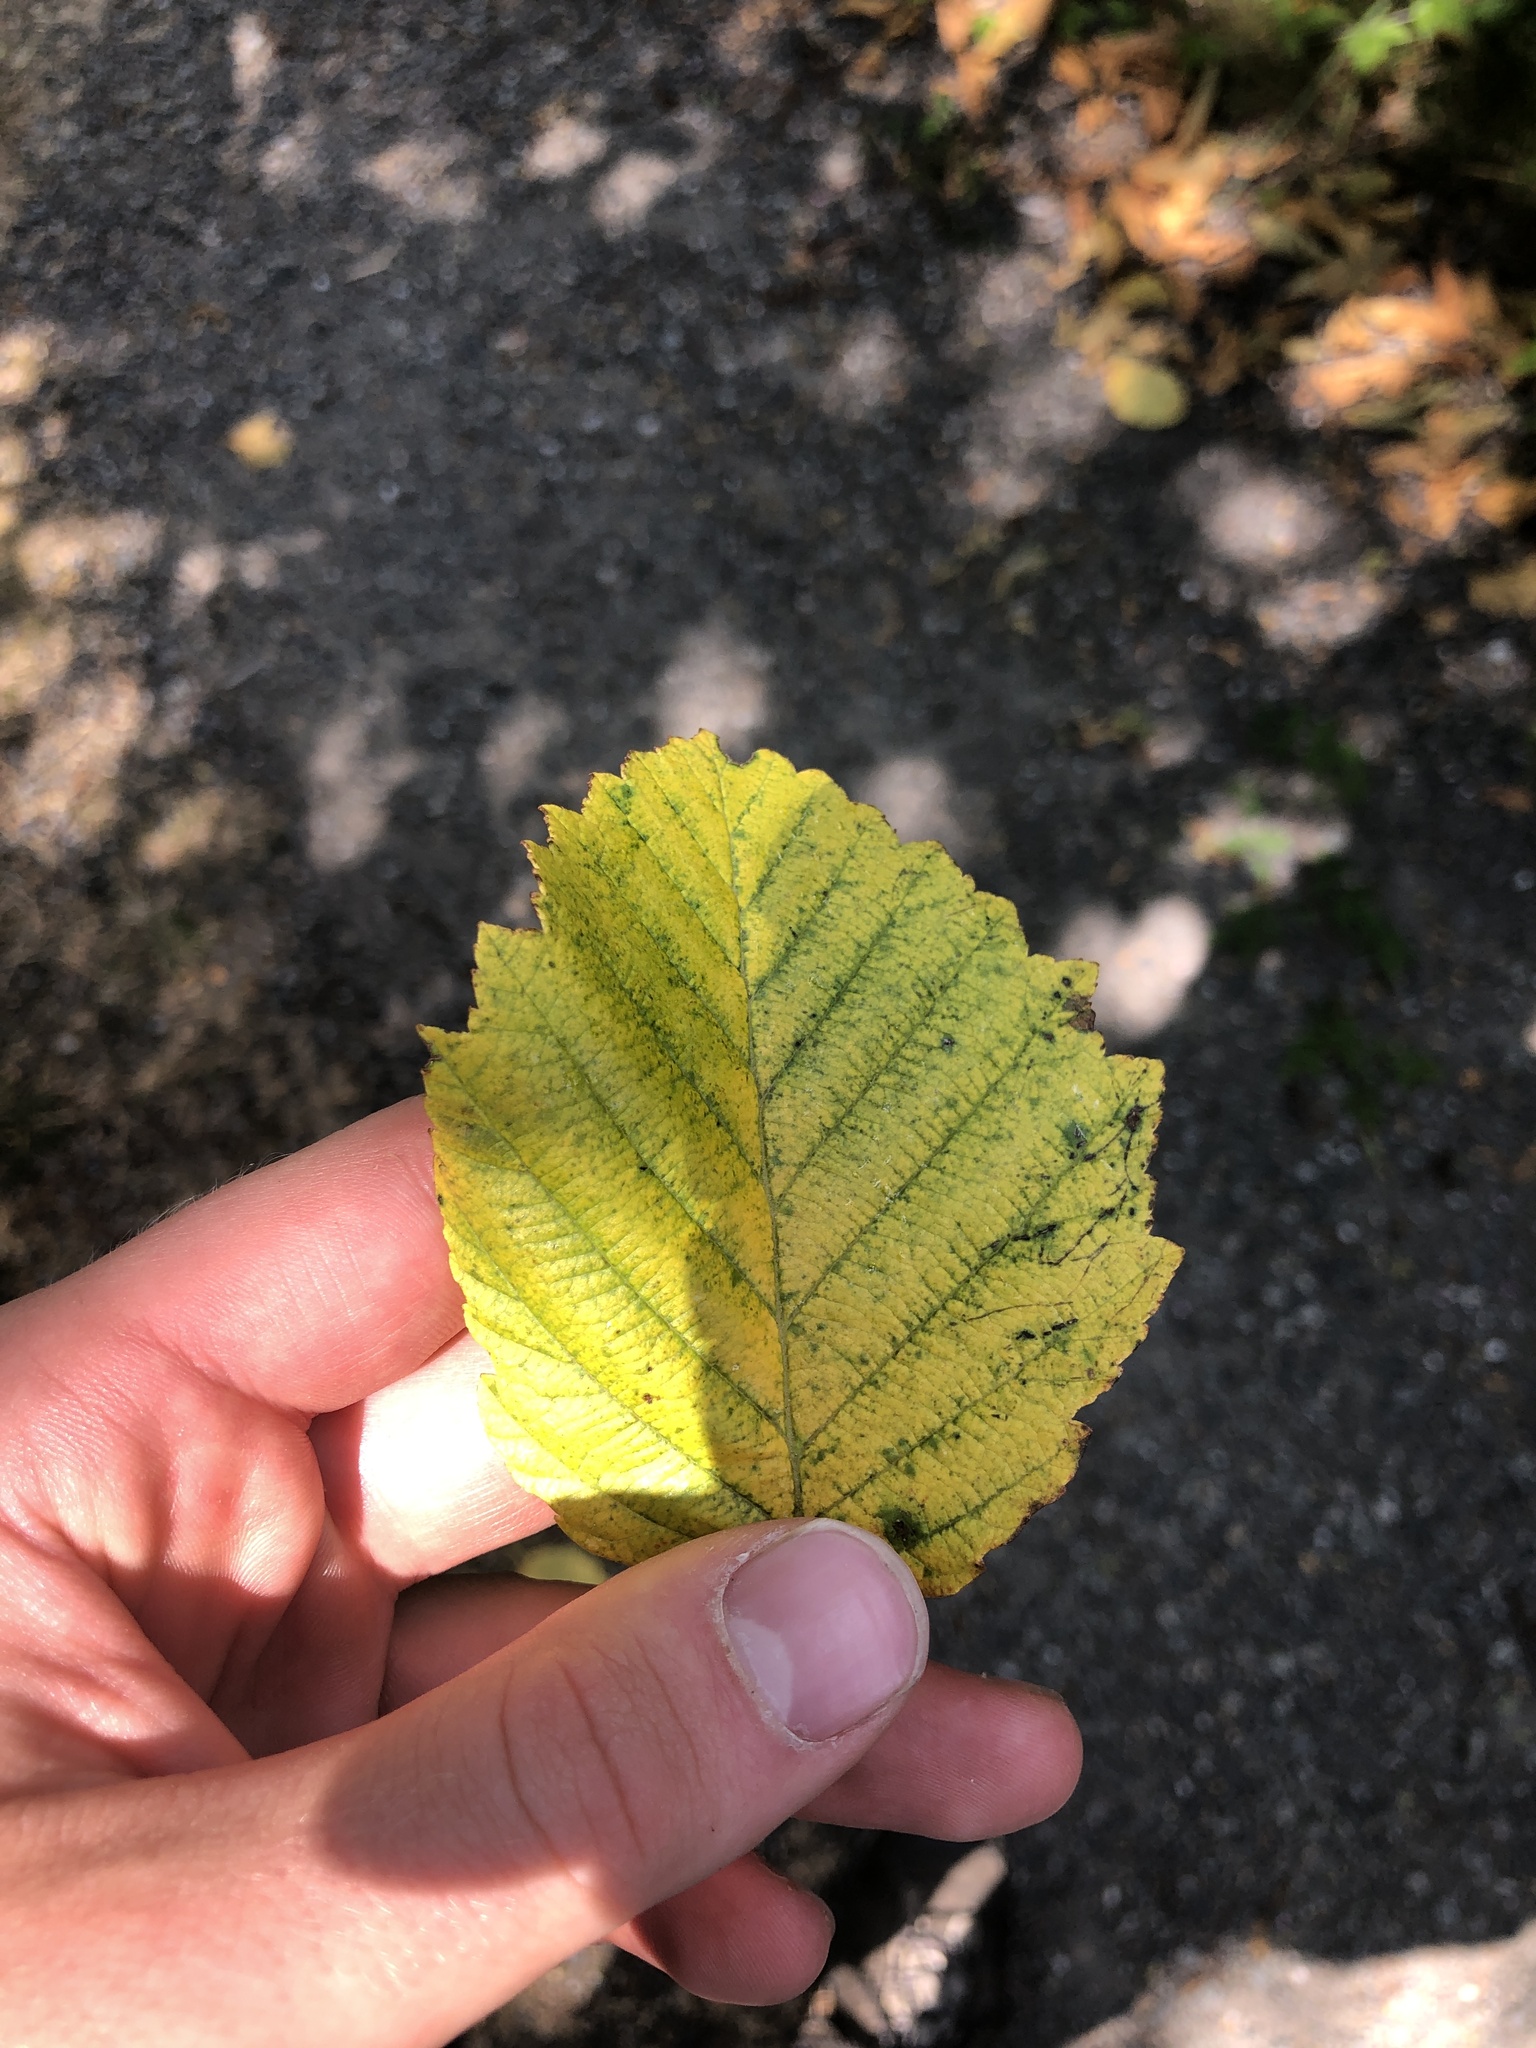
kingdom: Plantae
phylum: Tracheophyta
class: Magnoliopsida
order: Fagales
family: Betulaceae
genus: Alnus
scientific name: Alnus rubra
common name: Red alder
